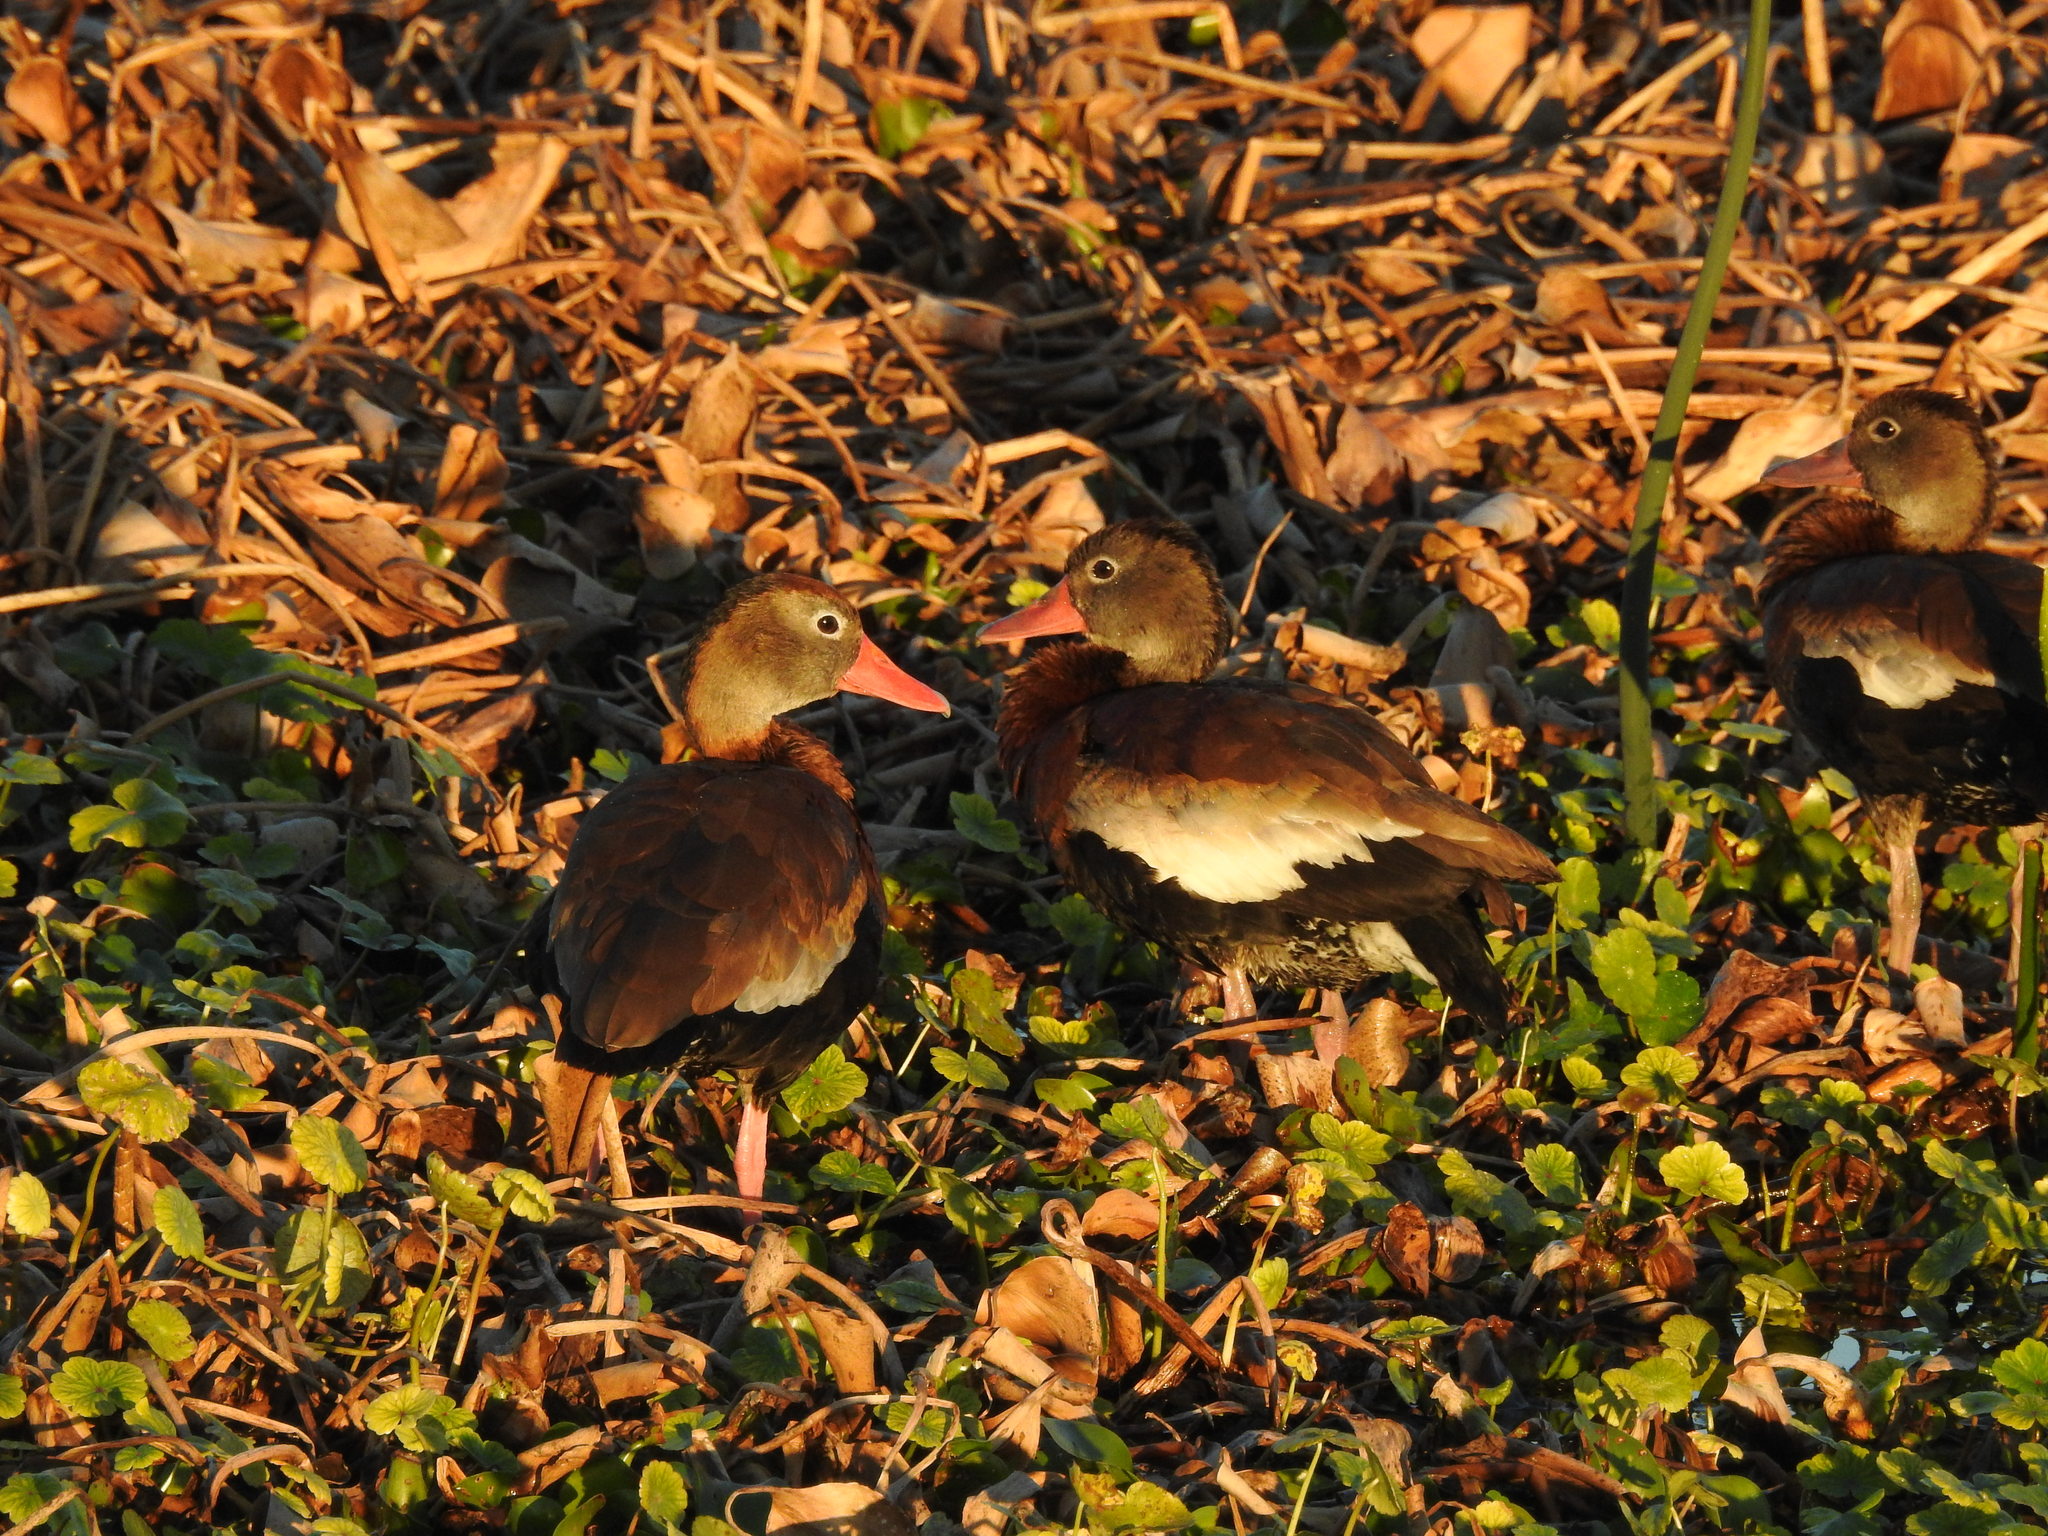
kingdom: Animalia
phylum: Chordata
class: Aves
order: Anseriformes
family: Anatidae
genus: Dendrocygna
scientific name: Dendrocygna autumnalis
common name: Black-bellied whistling duck
